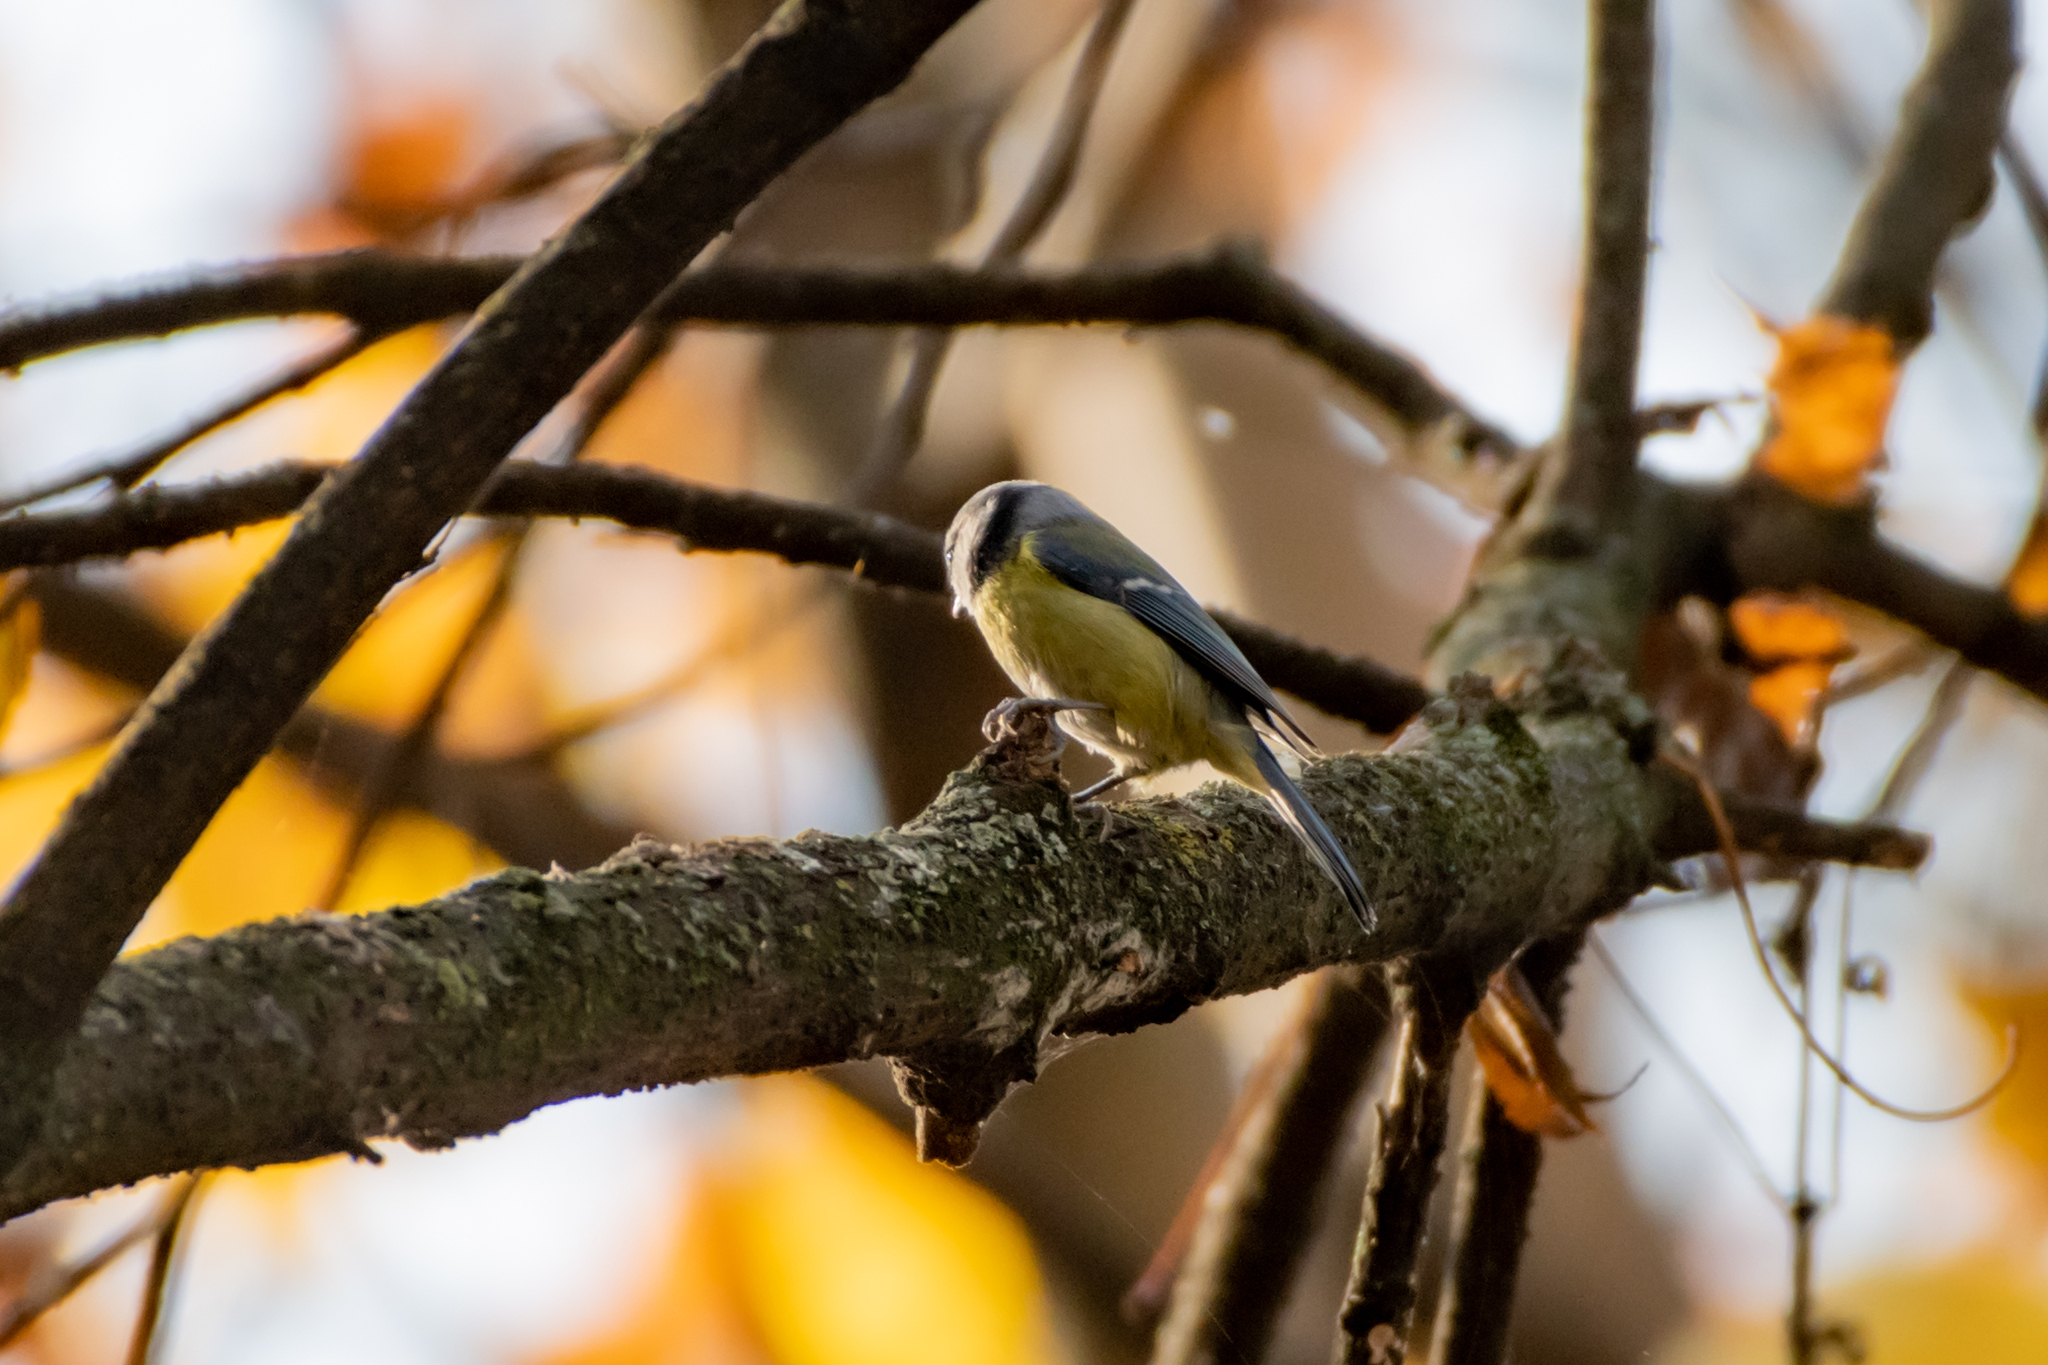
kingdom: Animalia
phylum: Chordata
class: Aves
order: Passeriformes
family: Paridae
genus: Cyanistes
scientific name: Cyanistes caeruleus
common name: Eurasian blue tit
